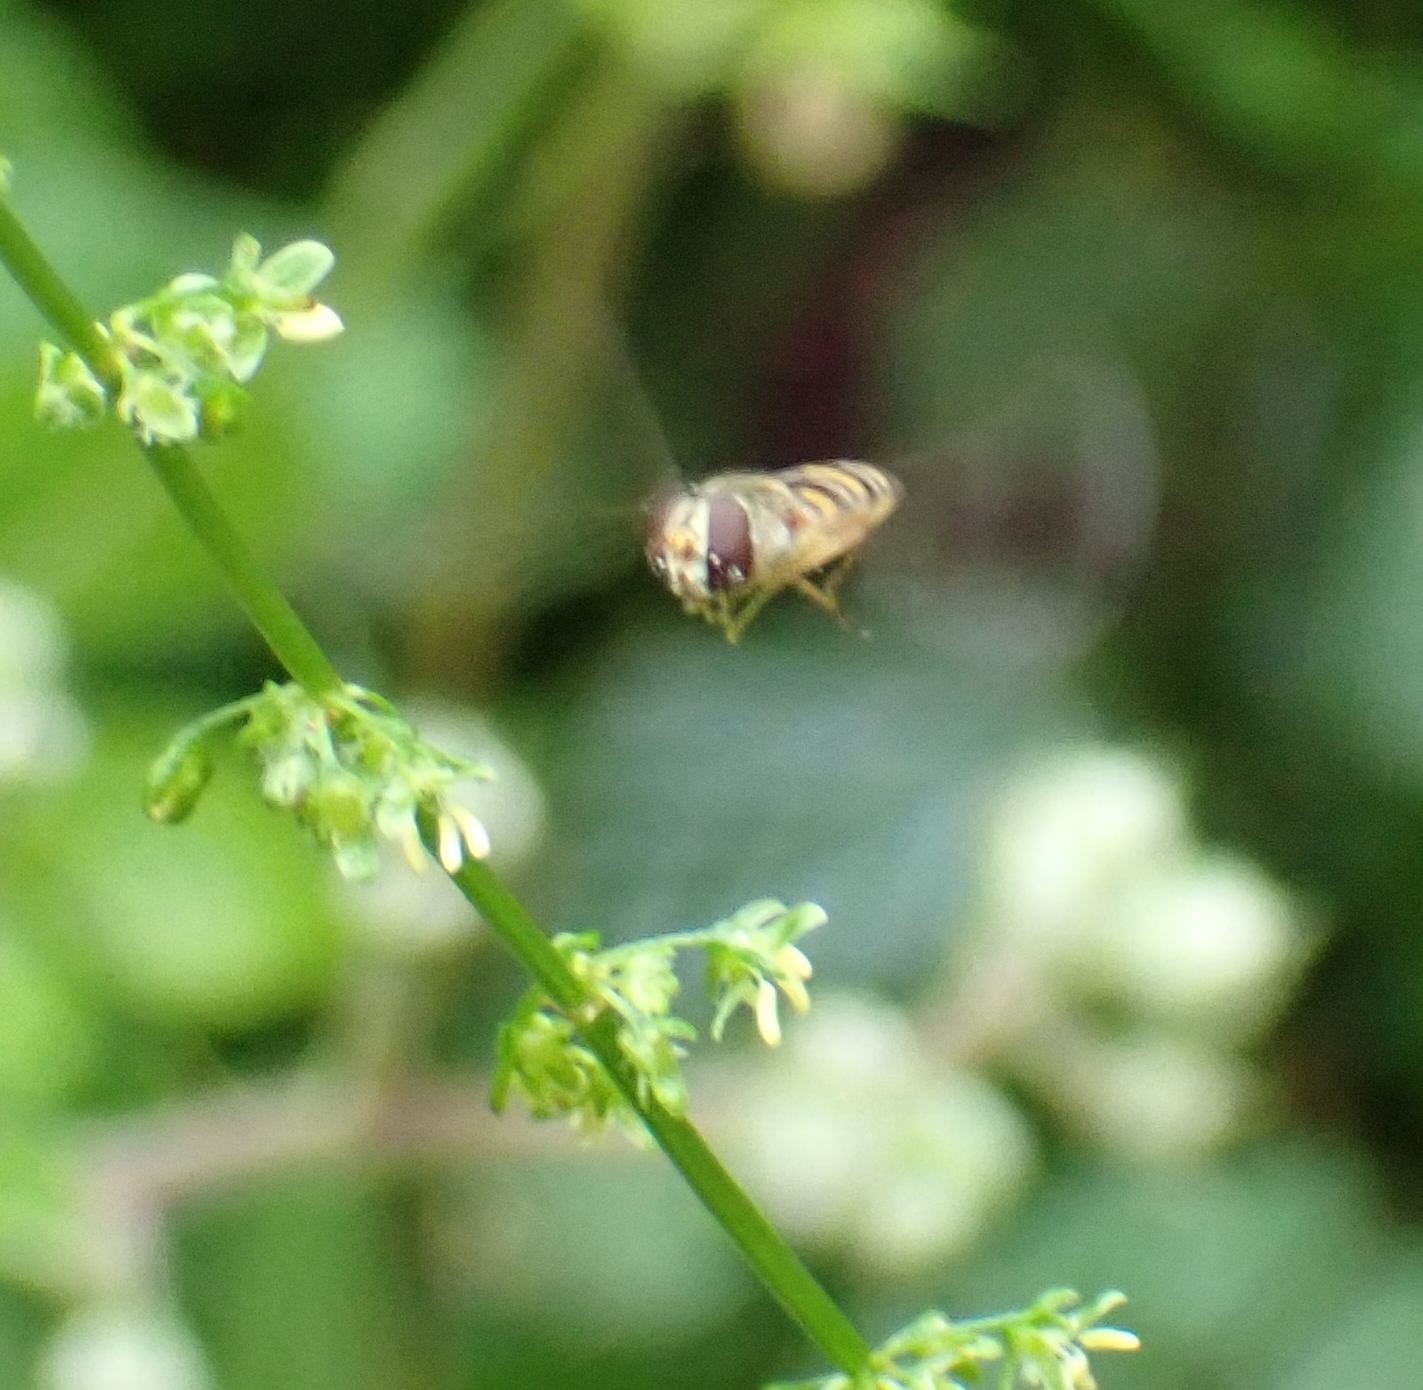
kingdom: Animalia
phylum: Arthropoda
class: Insecta
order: Diptera
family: Syrphidae
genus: Episyrphus
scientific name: Episyrphus balteatus
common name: Marmalade hoverfly
